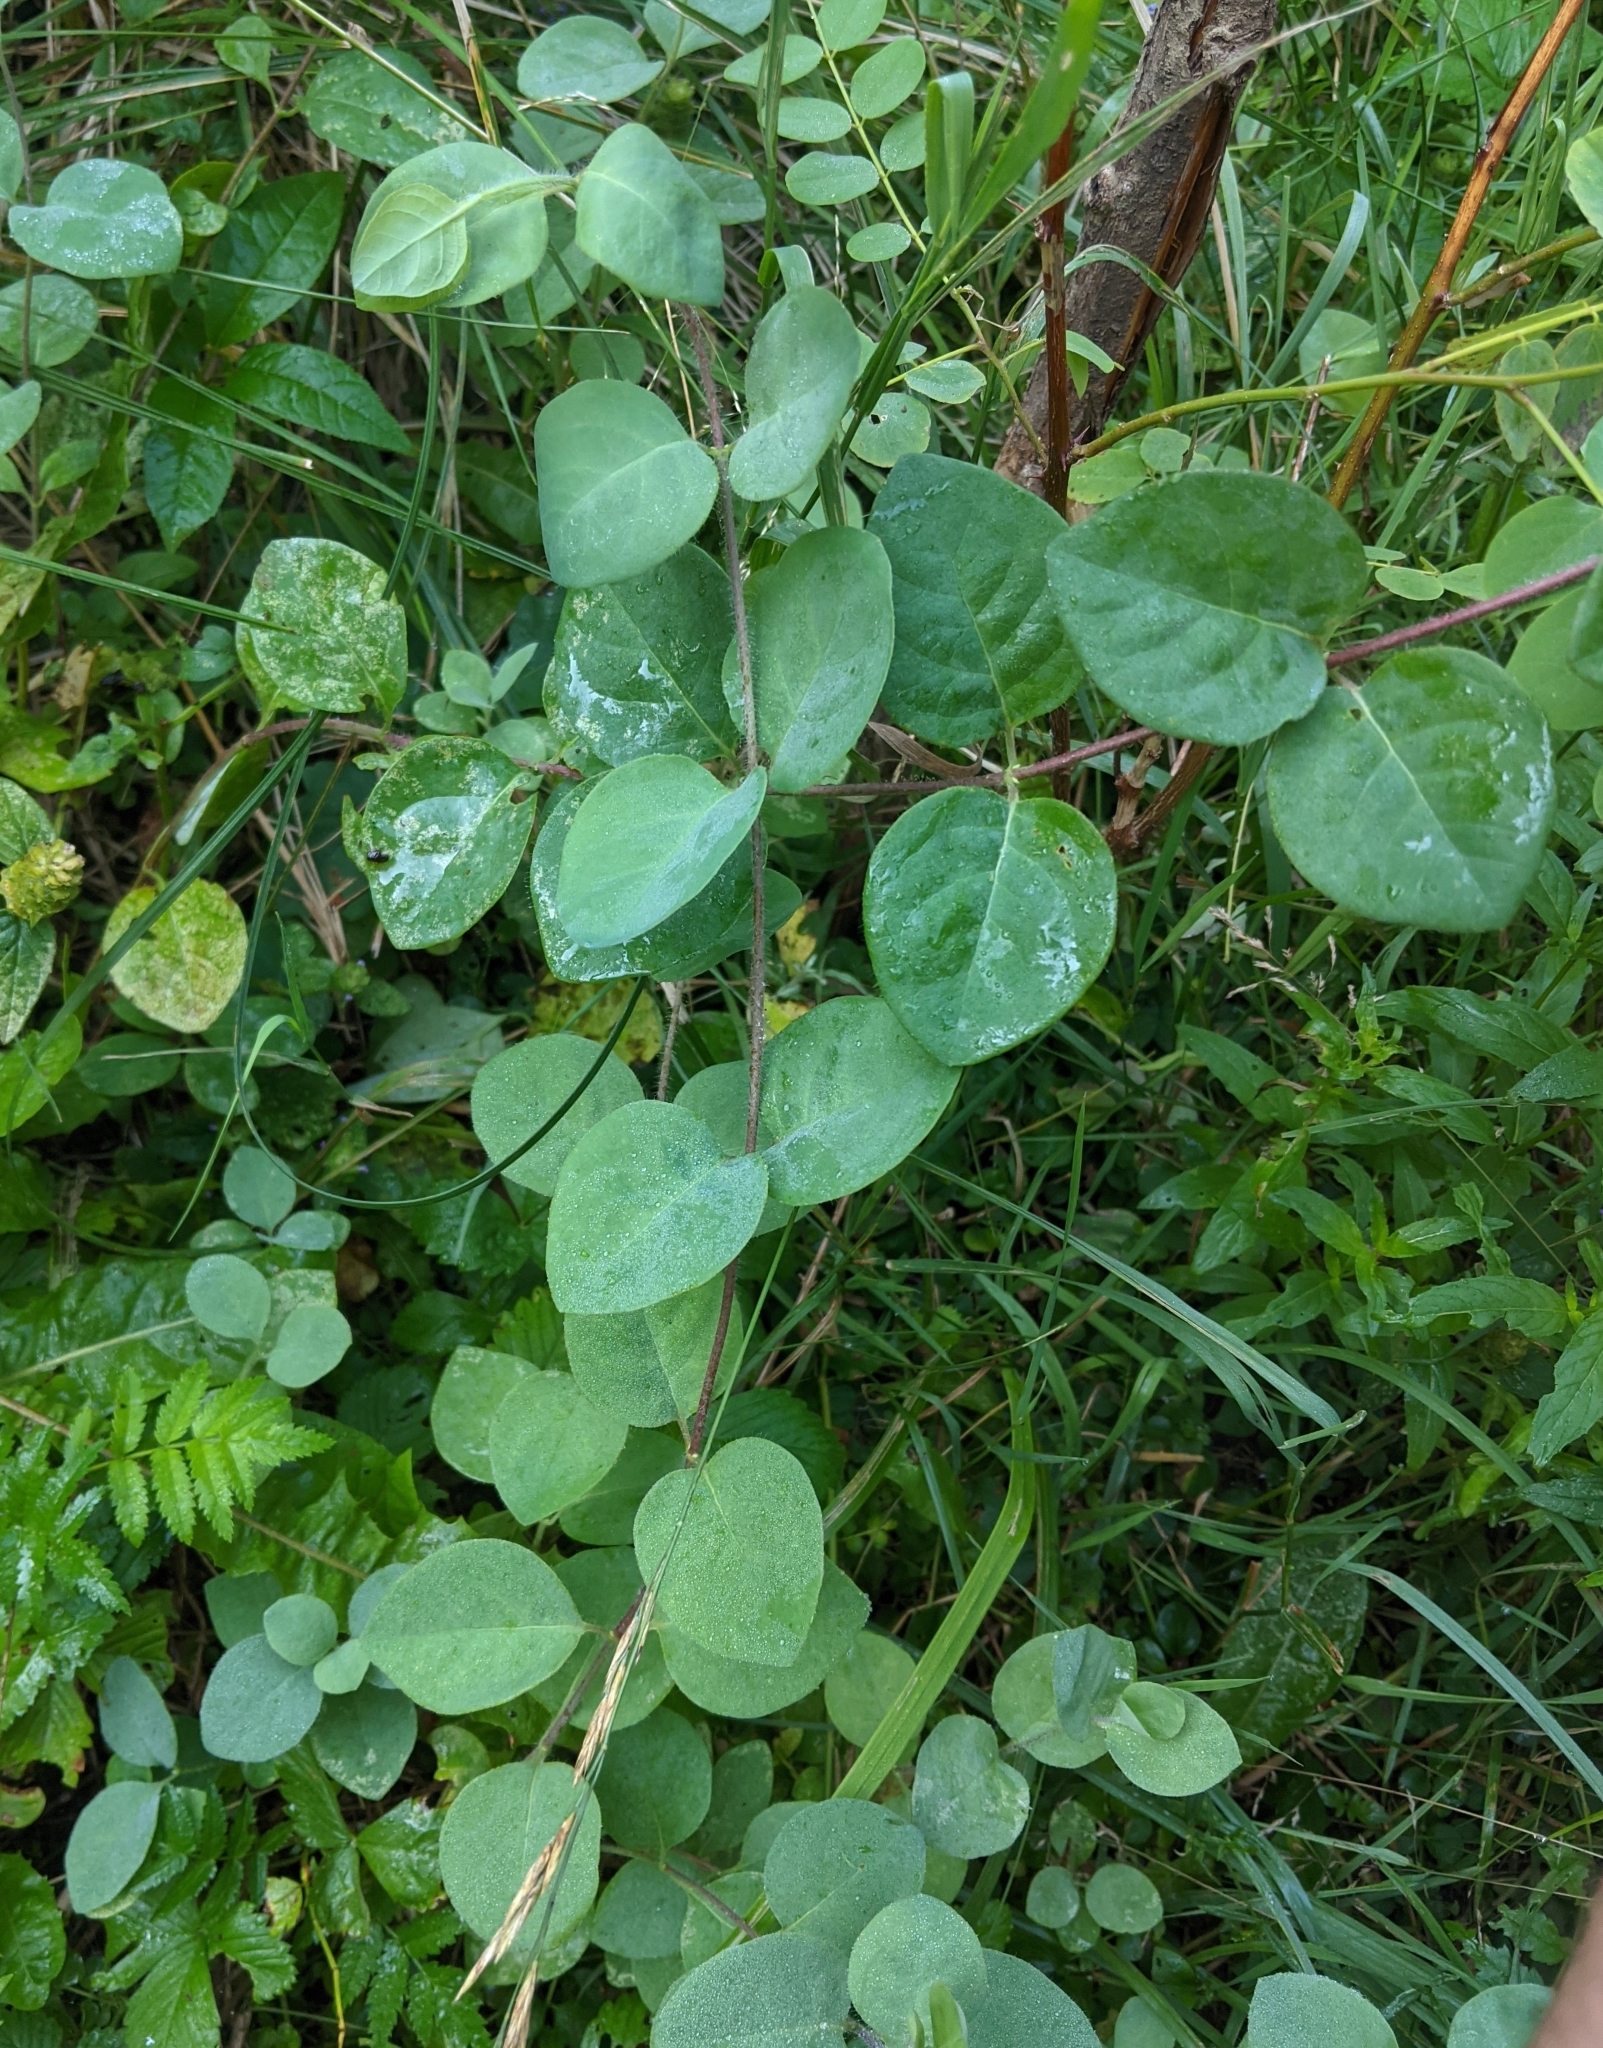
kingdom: Plantae
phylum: Tracheophyta
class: Magnoliopsida
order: Dipsacales
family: Caprifoliaceae
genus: Lonicera
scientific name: Lonicera caprifolium
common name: Perfoliate honeysuckle
